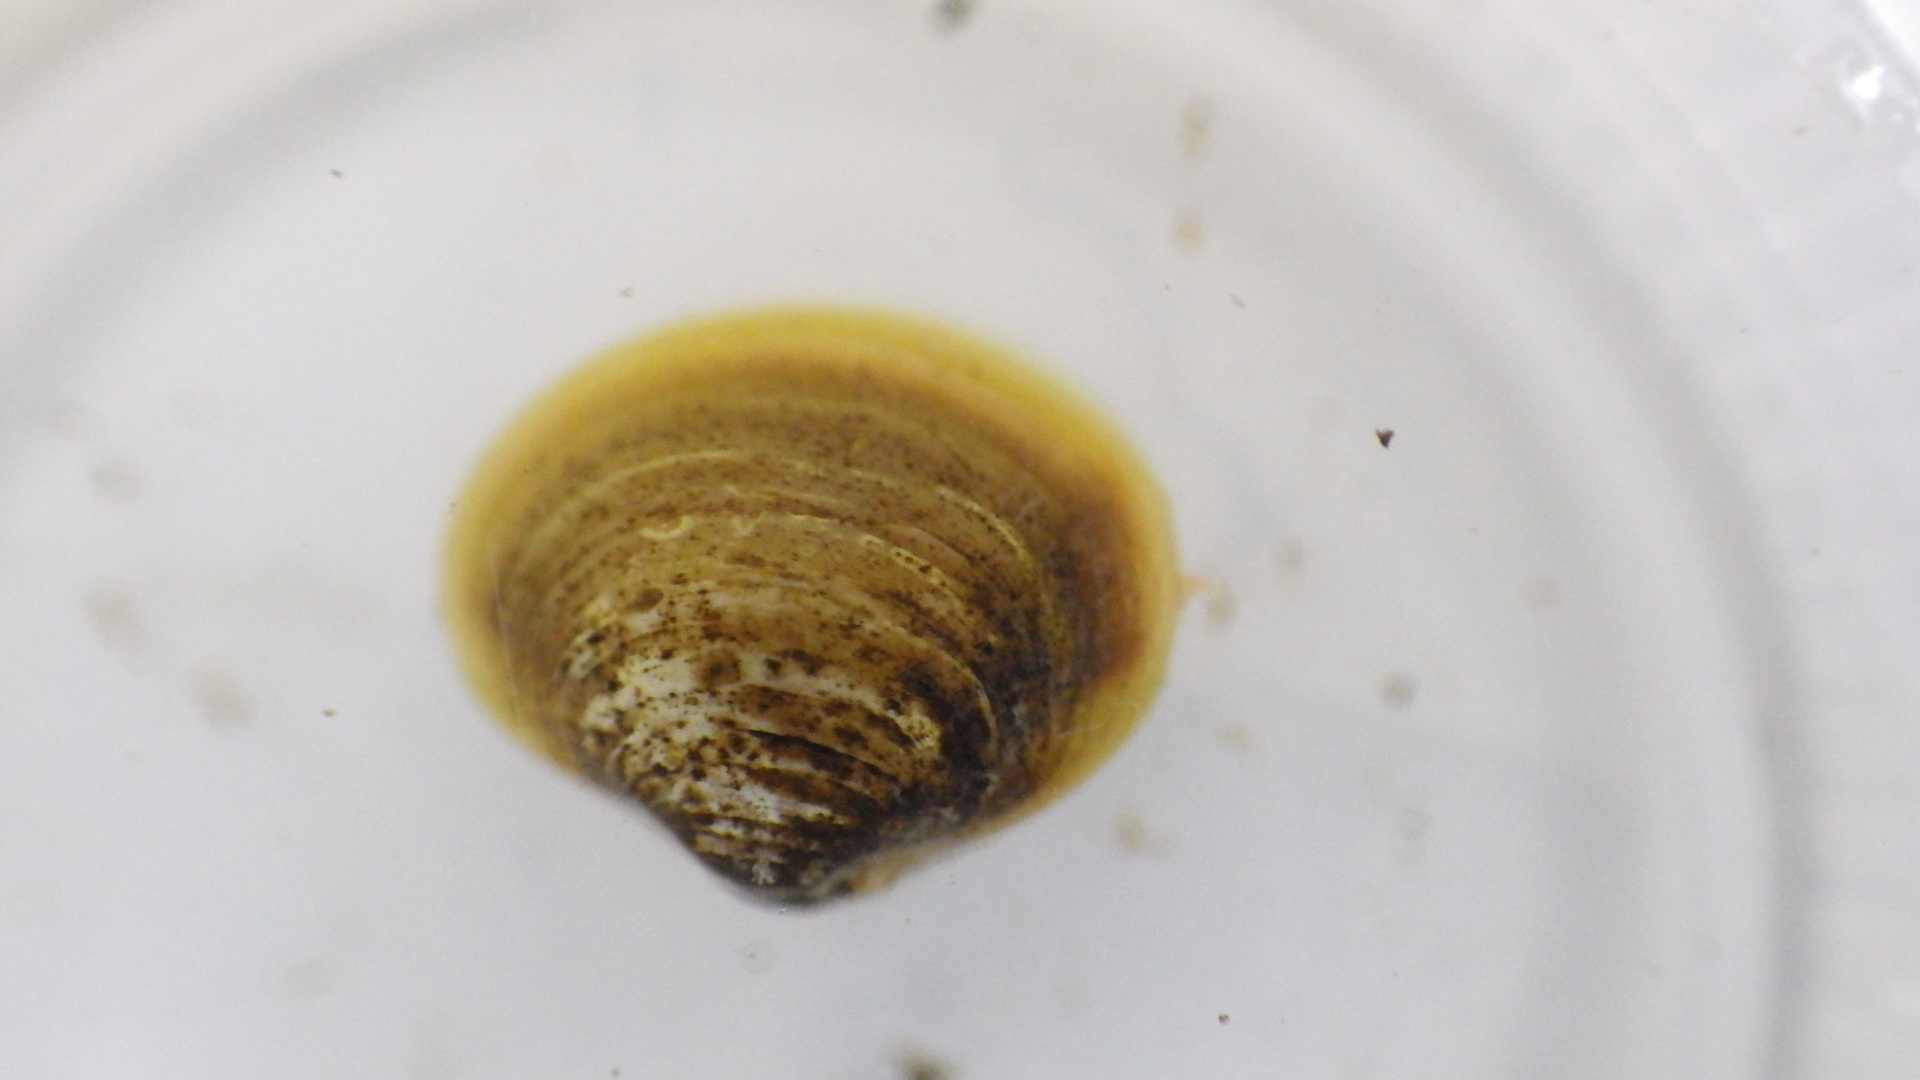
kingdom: Animalia
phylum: Mollusca
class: Bivalvia
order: Venerida
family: Cyrenidae
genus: Corbicula
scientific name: Corbicula fluminea
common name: Asian clam
